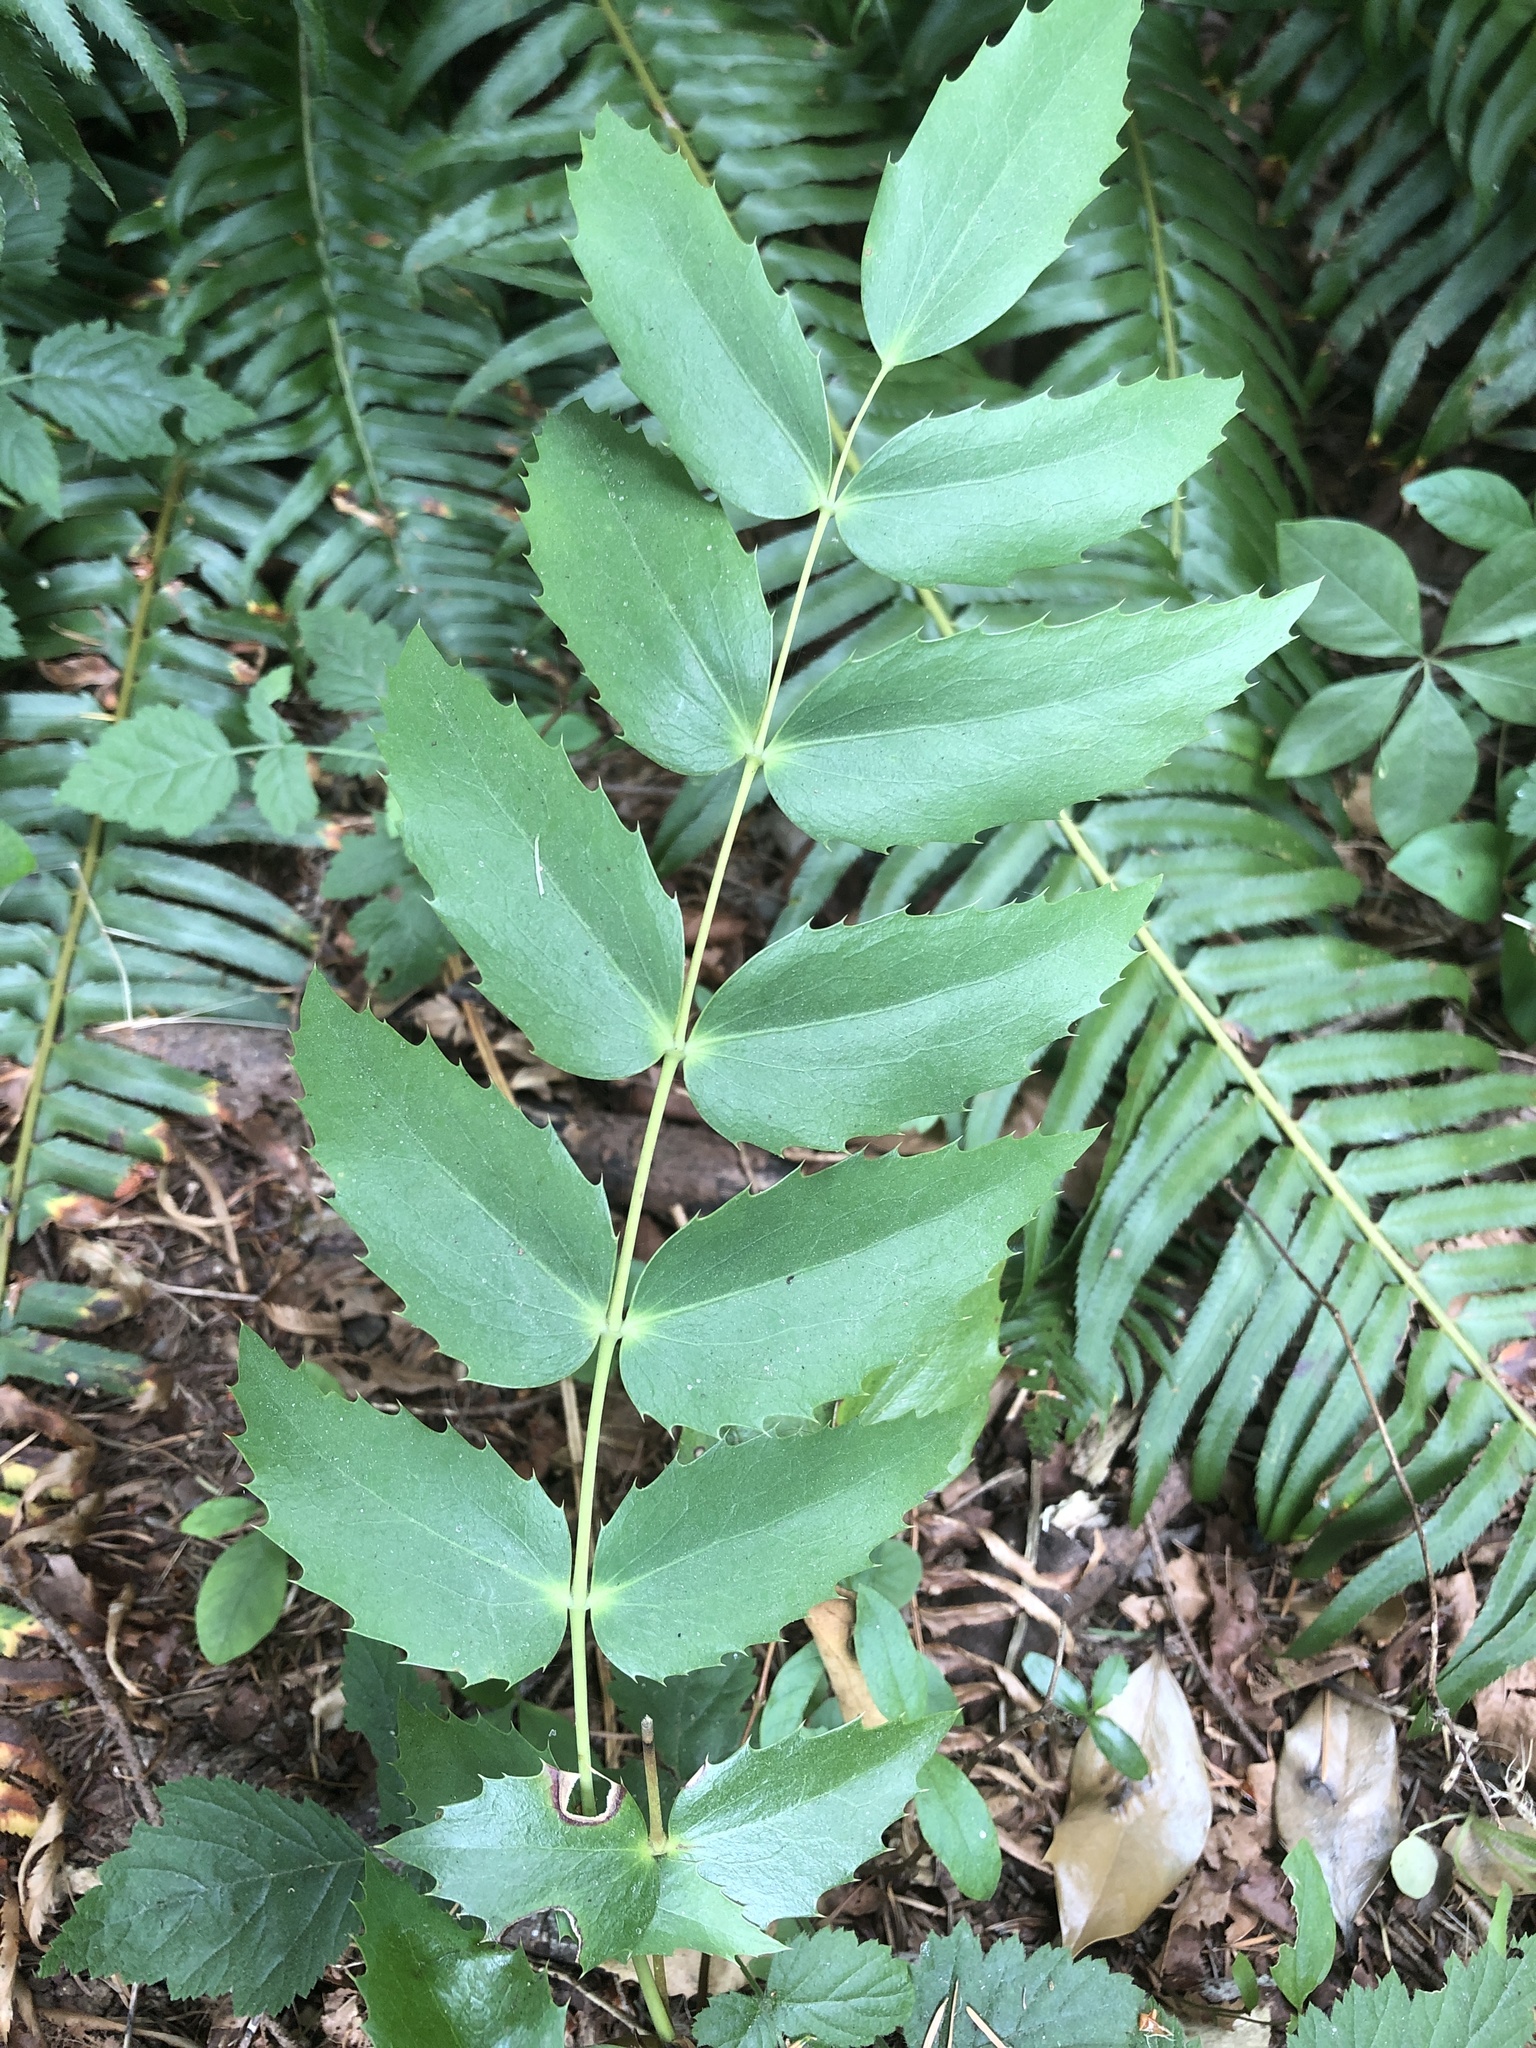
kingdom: Plantae
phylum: Tracheophyta
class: Magnoliopsida
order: Ranunculales
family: Berberidaceae
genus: Mahonia
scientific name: Mahonia nervosa
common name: Cascade oregon-grape
